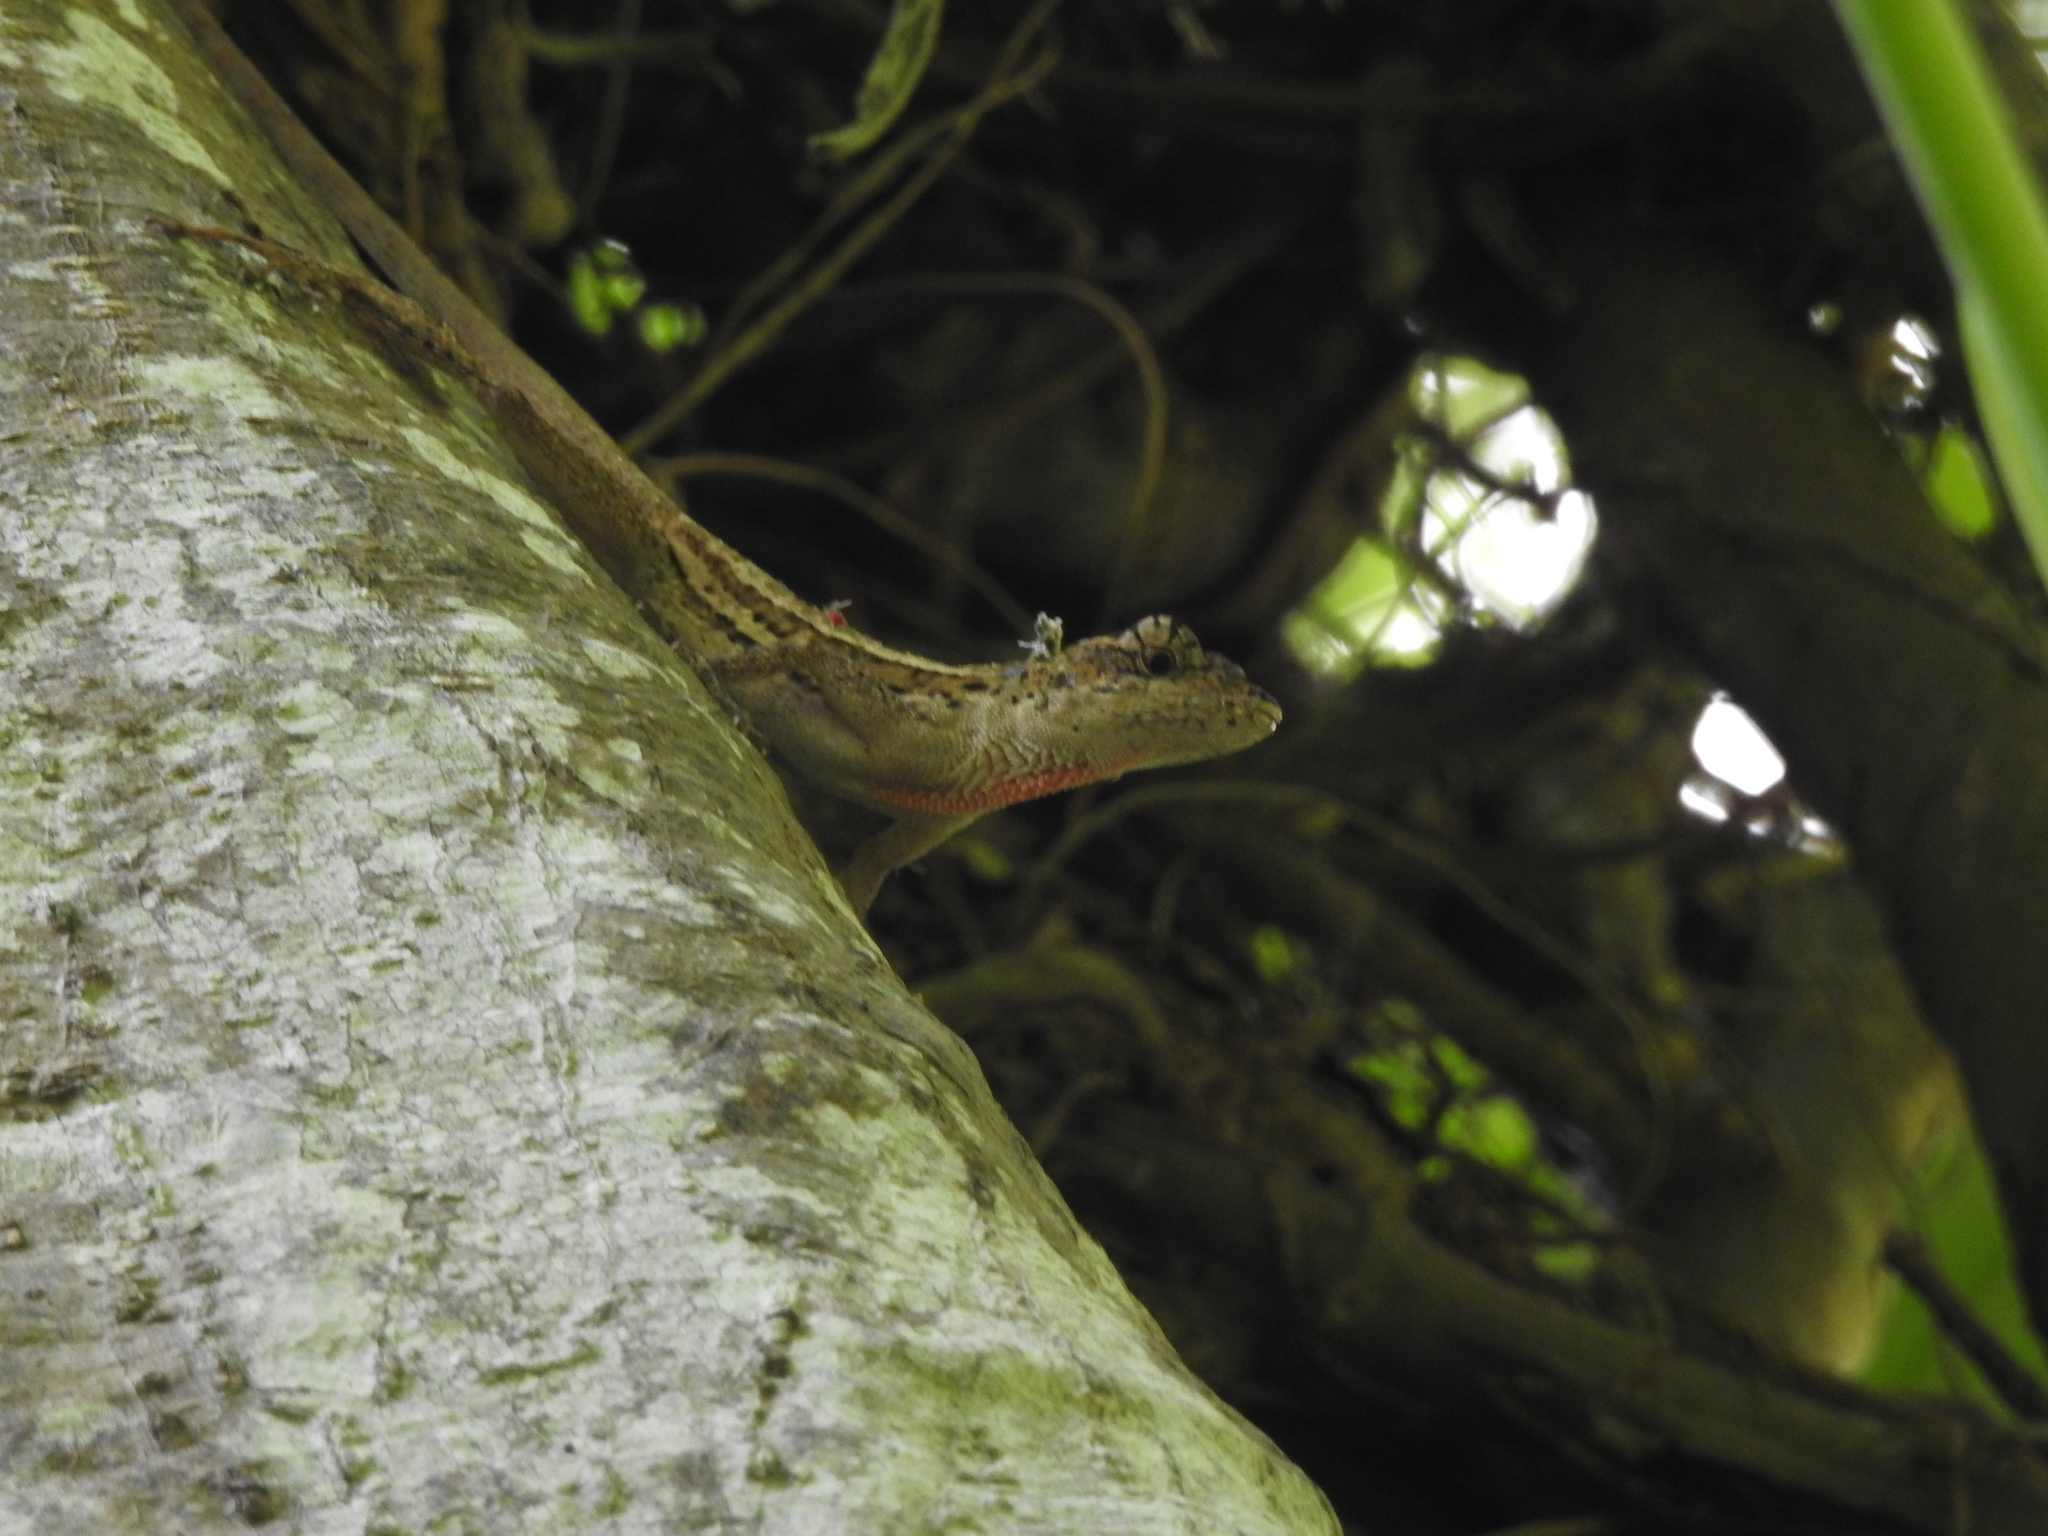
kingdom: Animalia
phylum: Chordata
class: Squamata
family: Dactyloidae
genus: Anolis
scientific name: Anolis lemurinus
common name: Ghost anole
